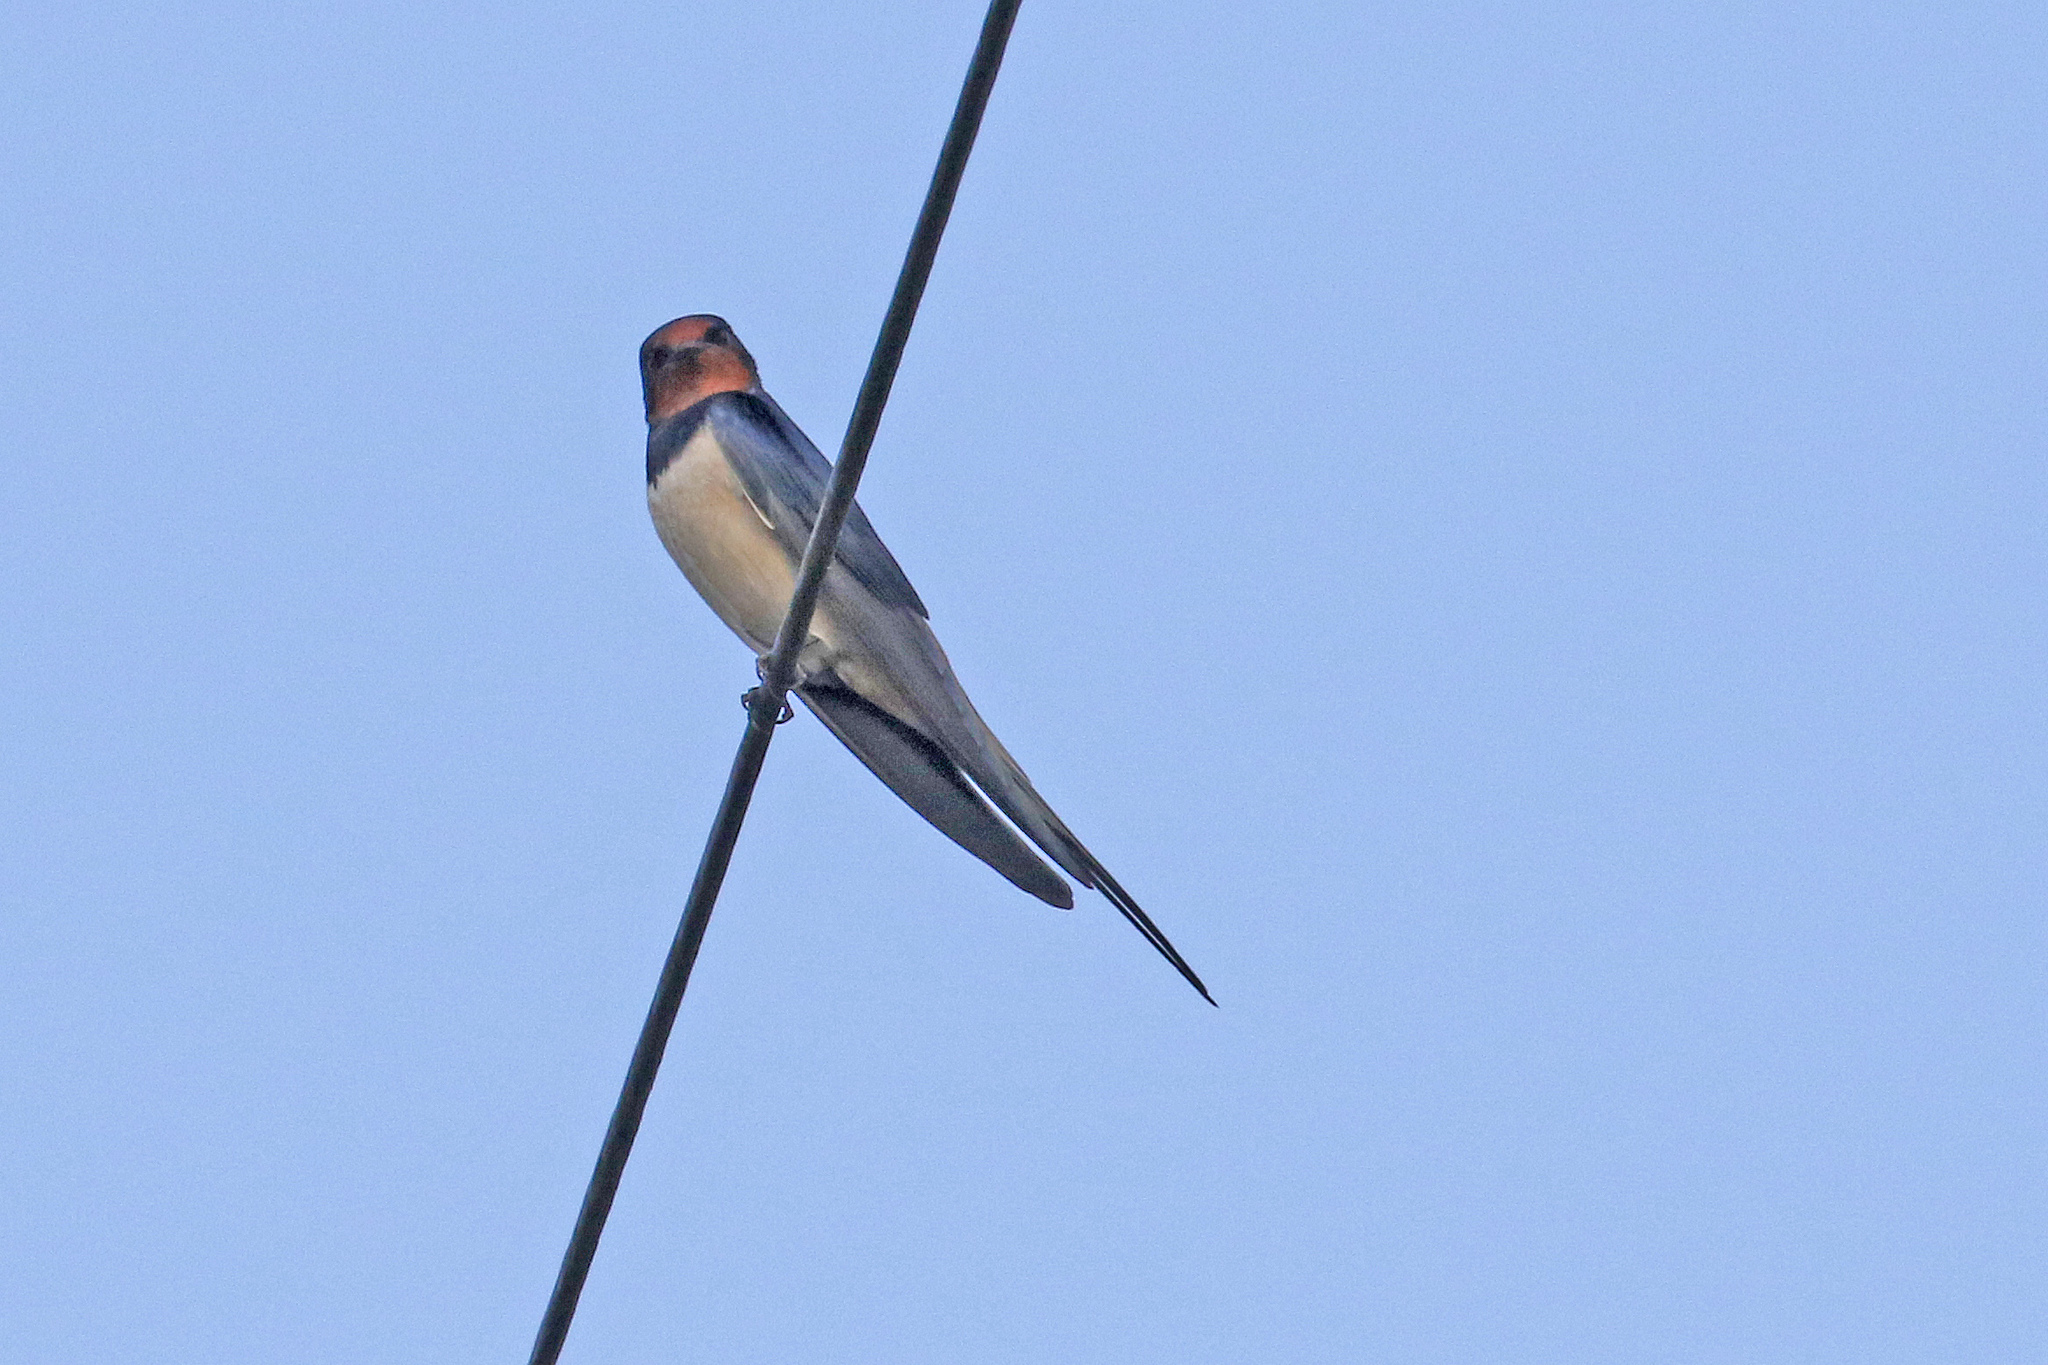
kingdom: Animalia
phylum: Chordata
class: Aves
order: Passeriformes
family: Hirundinidae
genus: Hirundo
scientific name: Hirundo rustica
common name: Barn swallow
